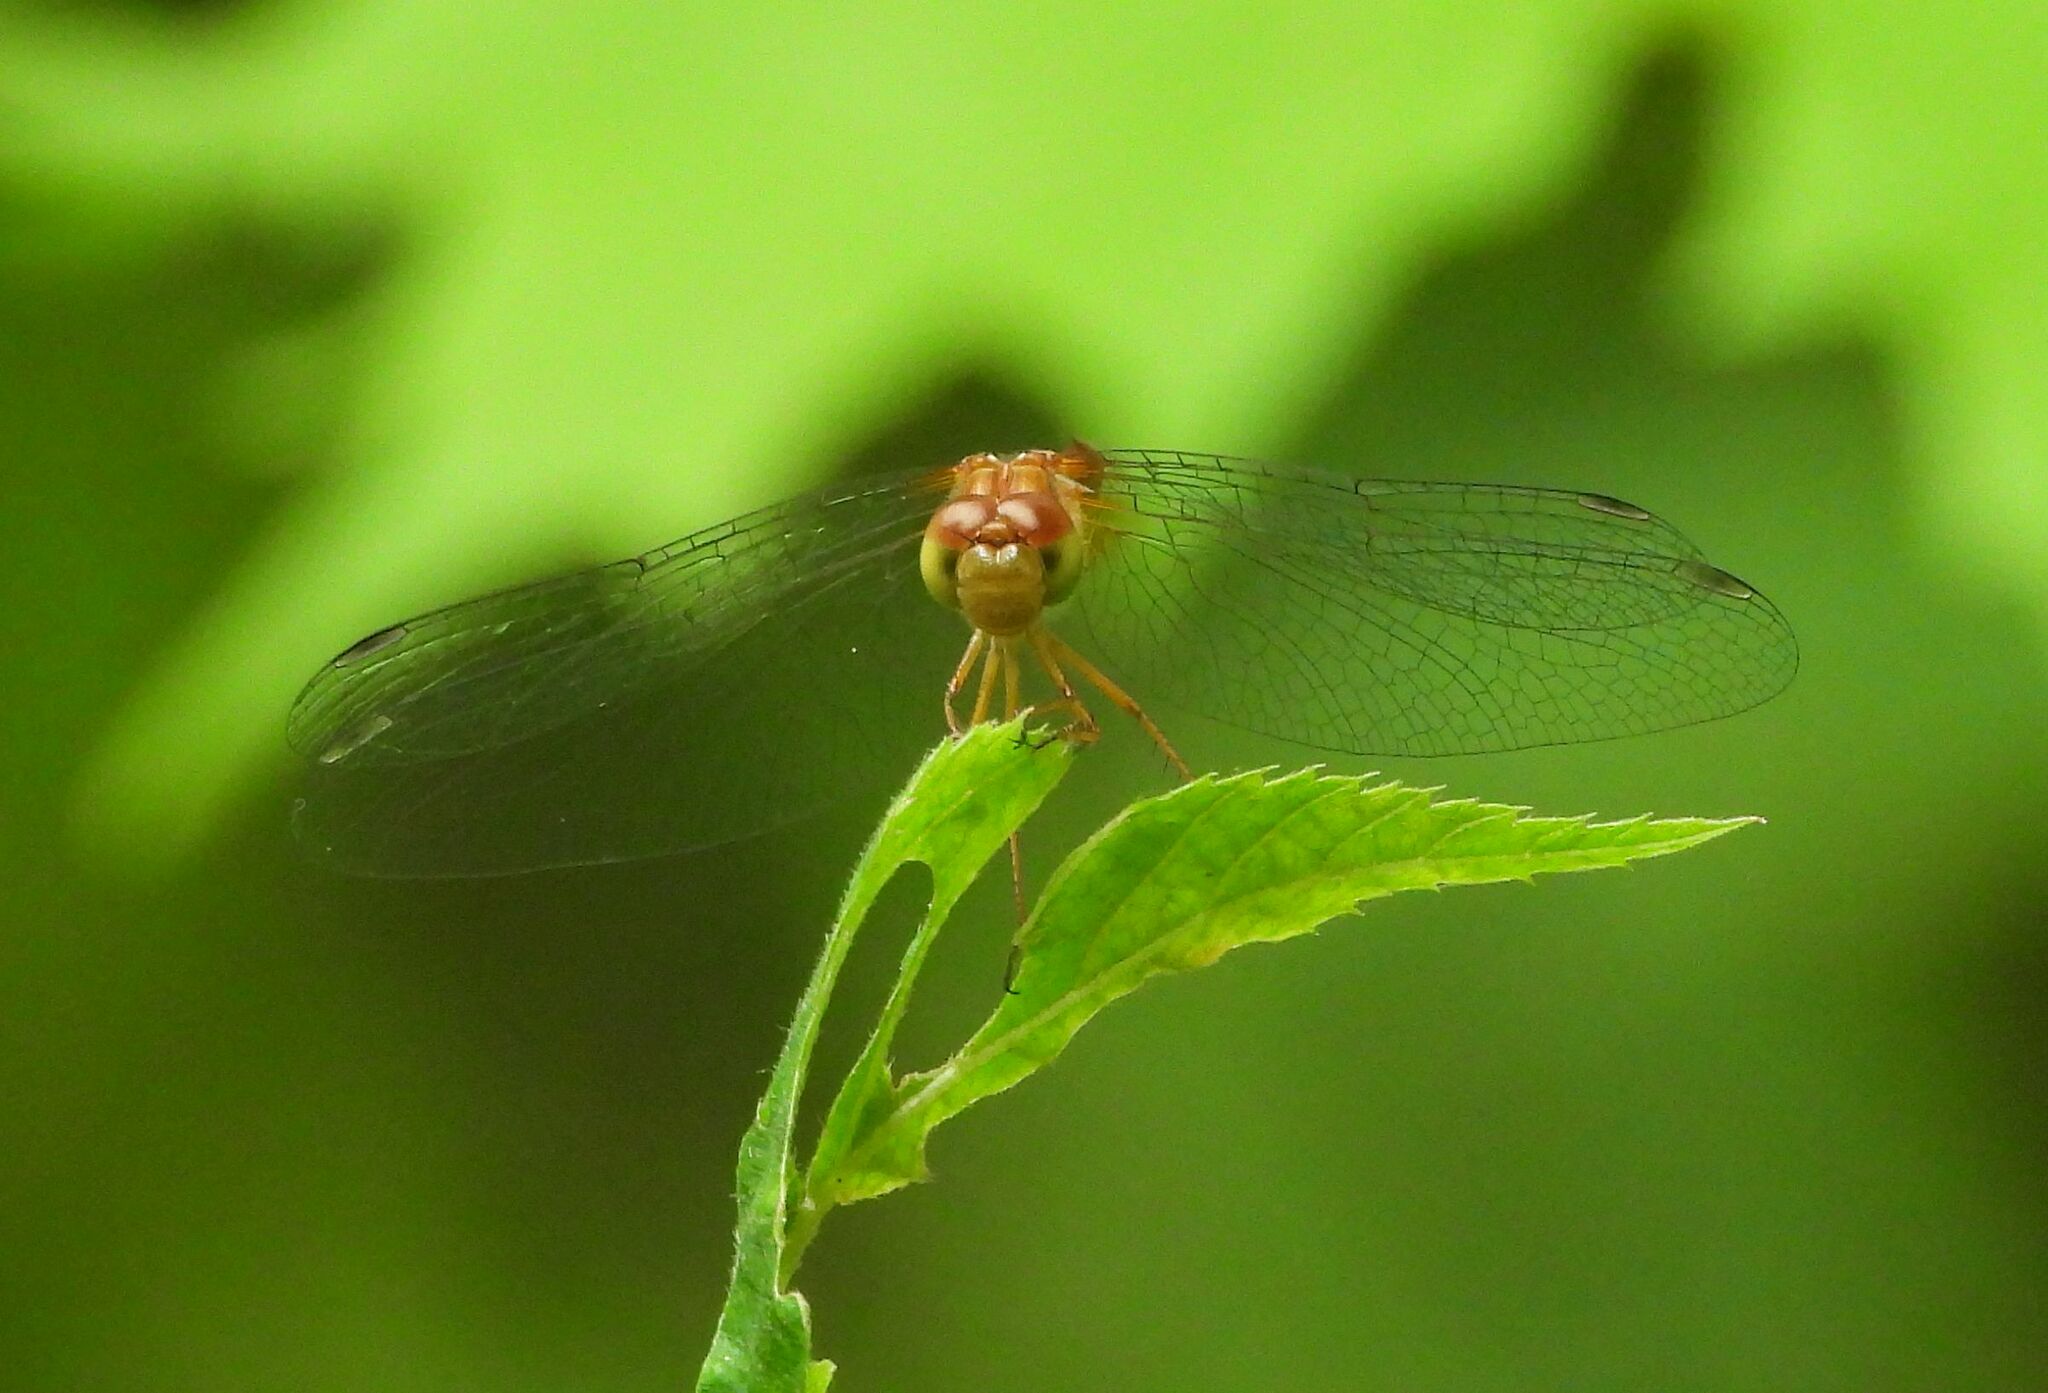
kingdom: Animalia
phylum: Arthropoda
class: Insecta
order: Odonata
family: Libellulidae
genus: Sympetrum
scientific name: Sympetrum vicinum
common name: Autumn meadowhawk
